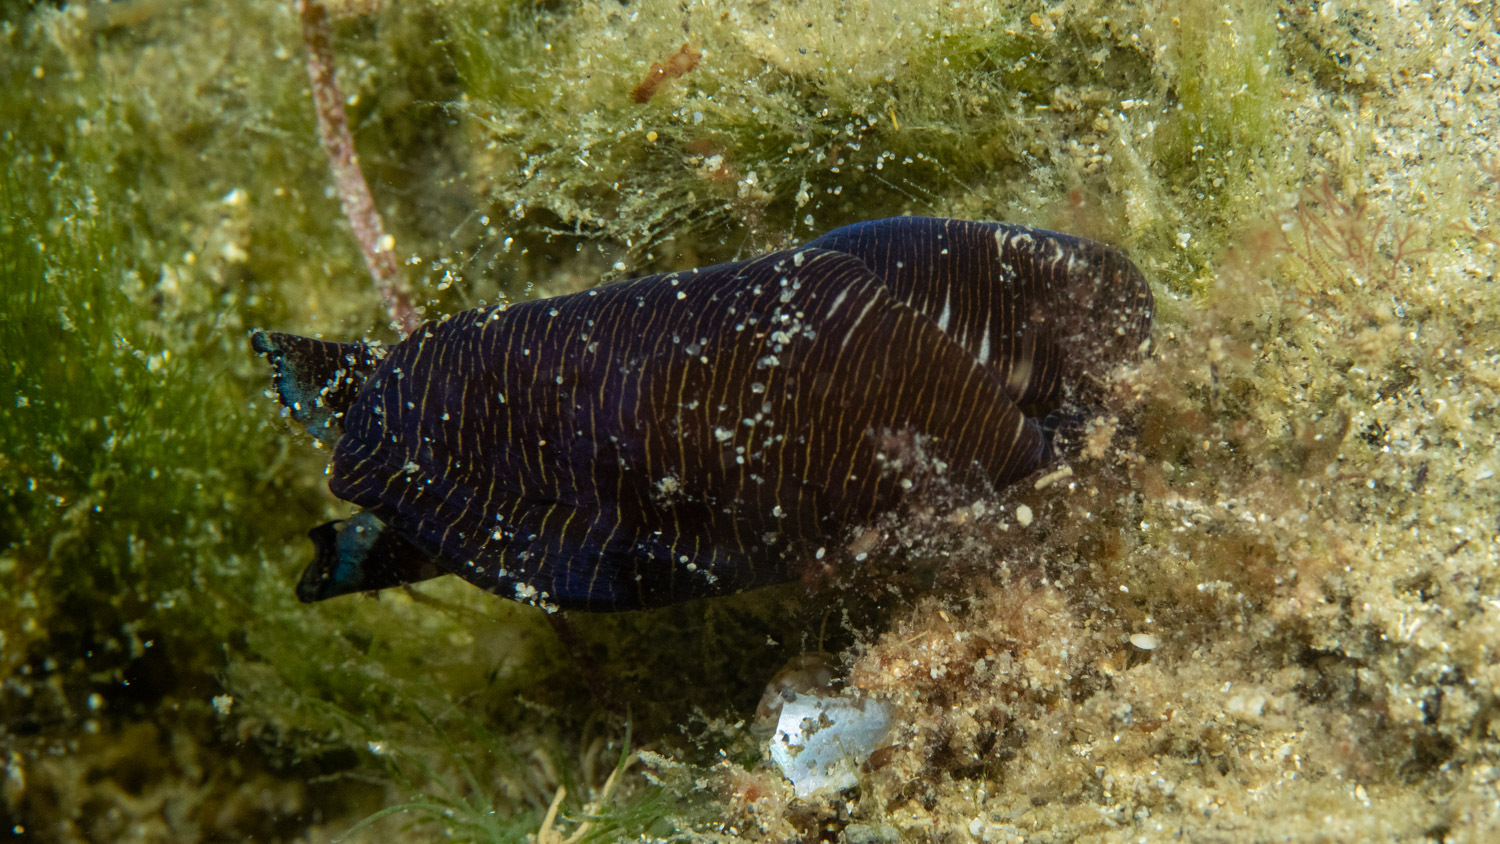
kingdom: Animalia
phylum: Mollusca
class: Gastropoda
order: Cephalaspidea
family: Aglajidae
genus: Tubulophilinopsis
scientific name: Tubulophilinopsis lineolata
